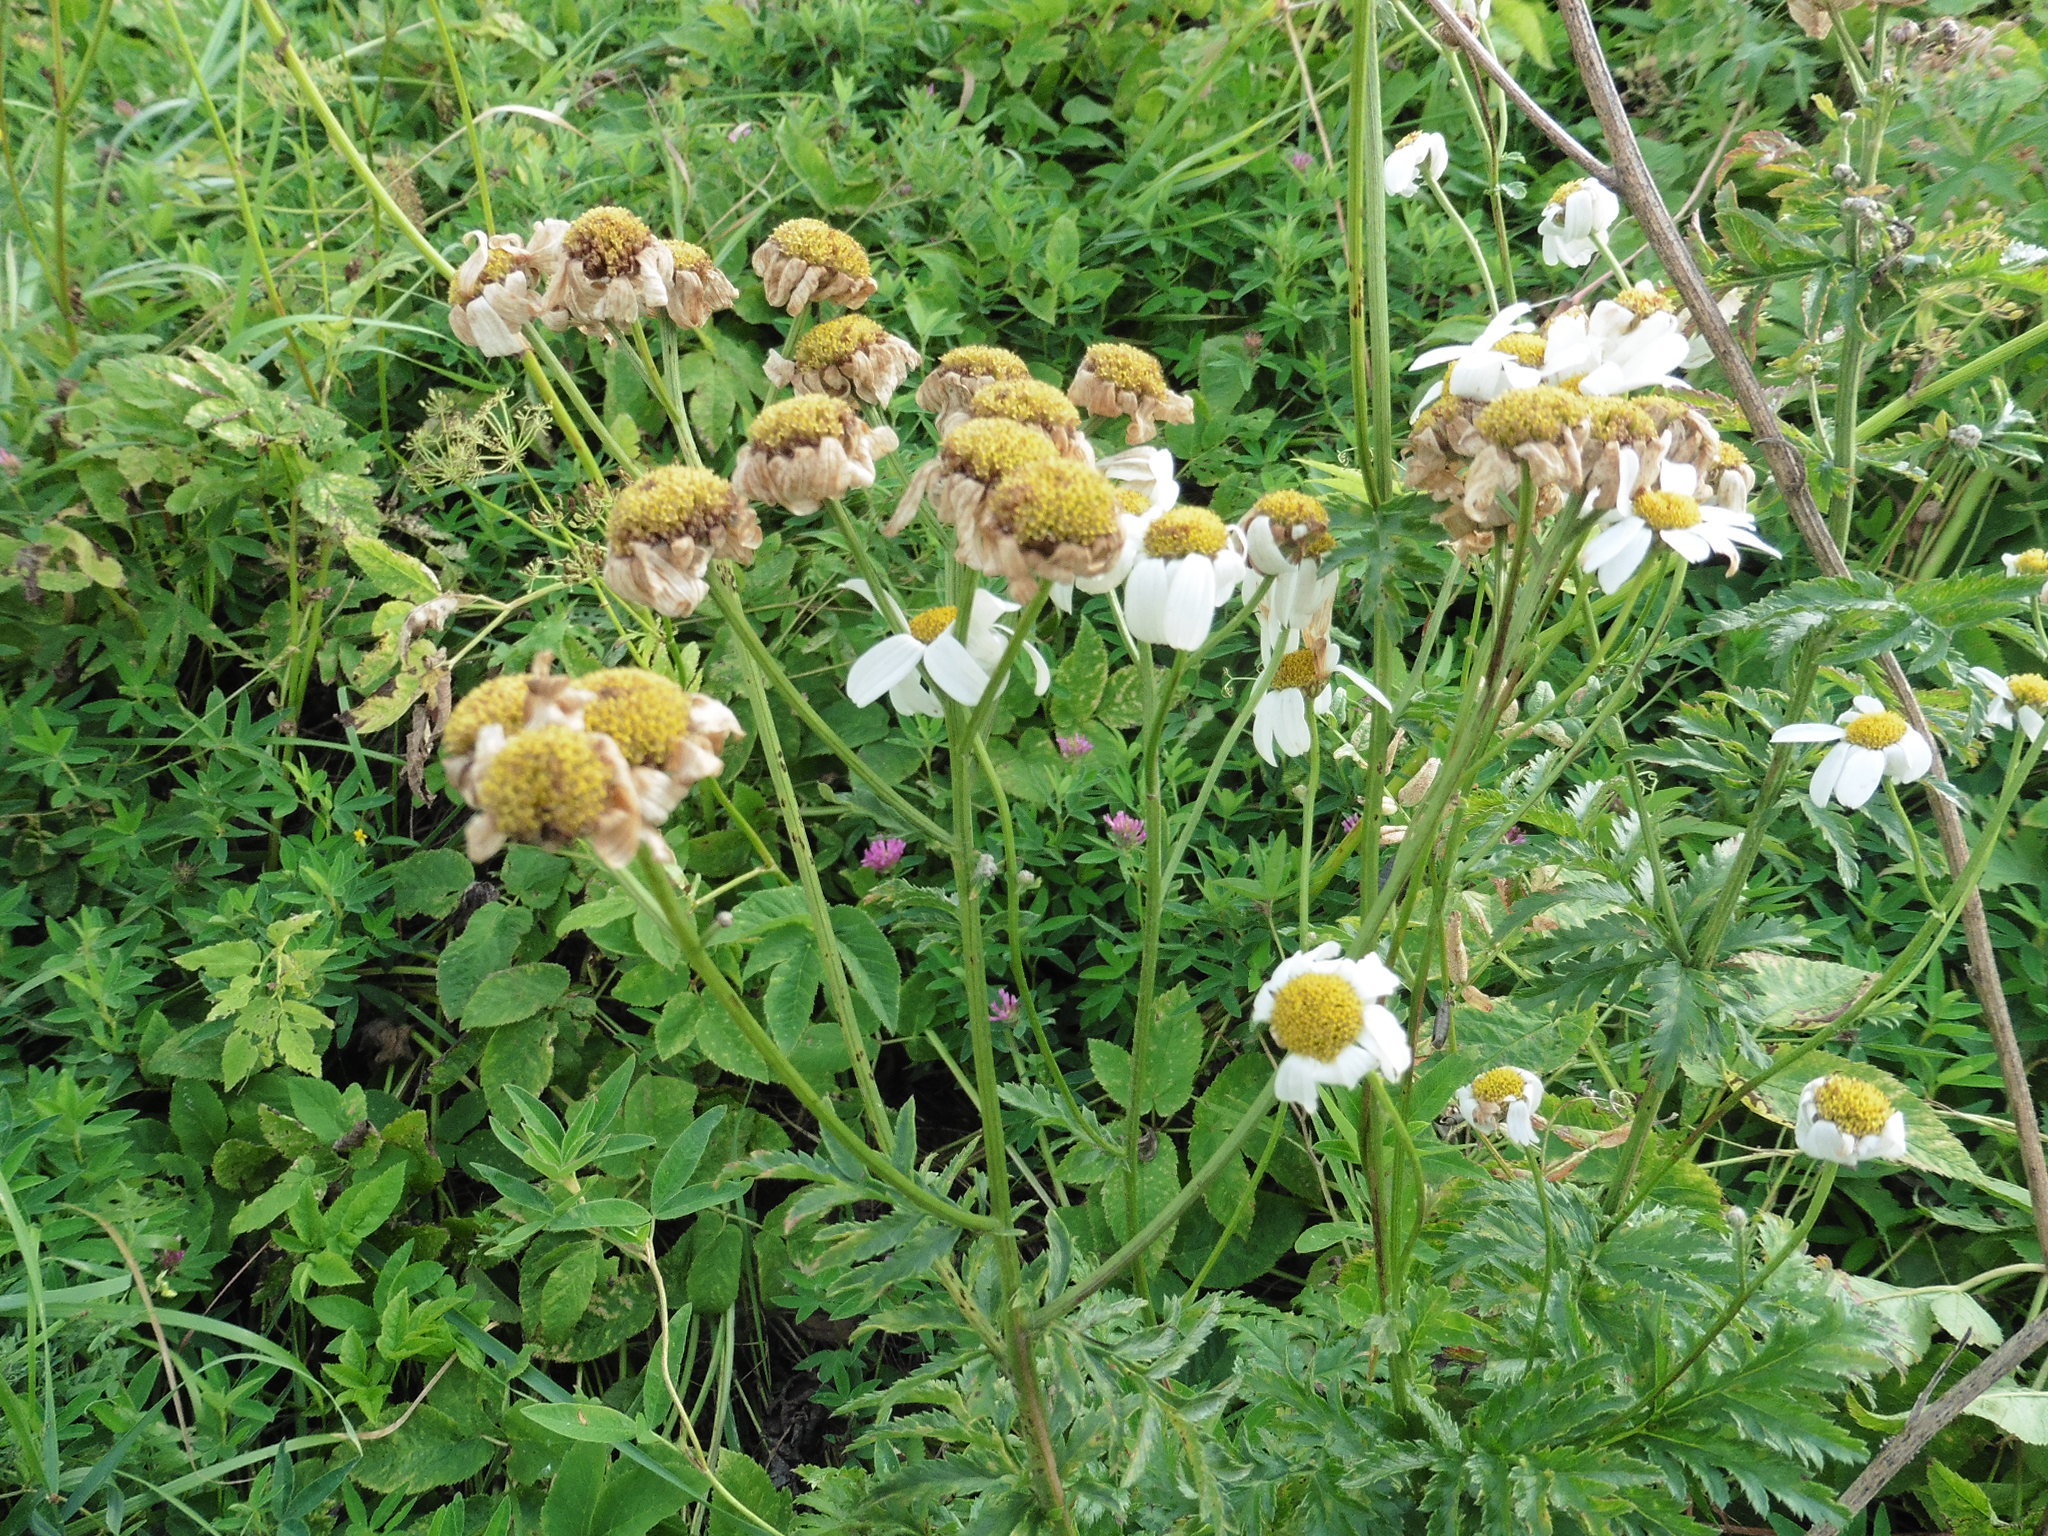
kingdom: Plantae
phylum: Tracheophyta
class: Magnoliopsida
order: Asterales
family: Asteraceae
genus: Tanacetum
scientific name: Tanacetum corymbosum
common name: Scentless feverfew
